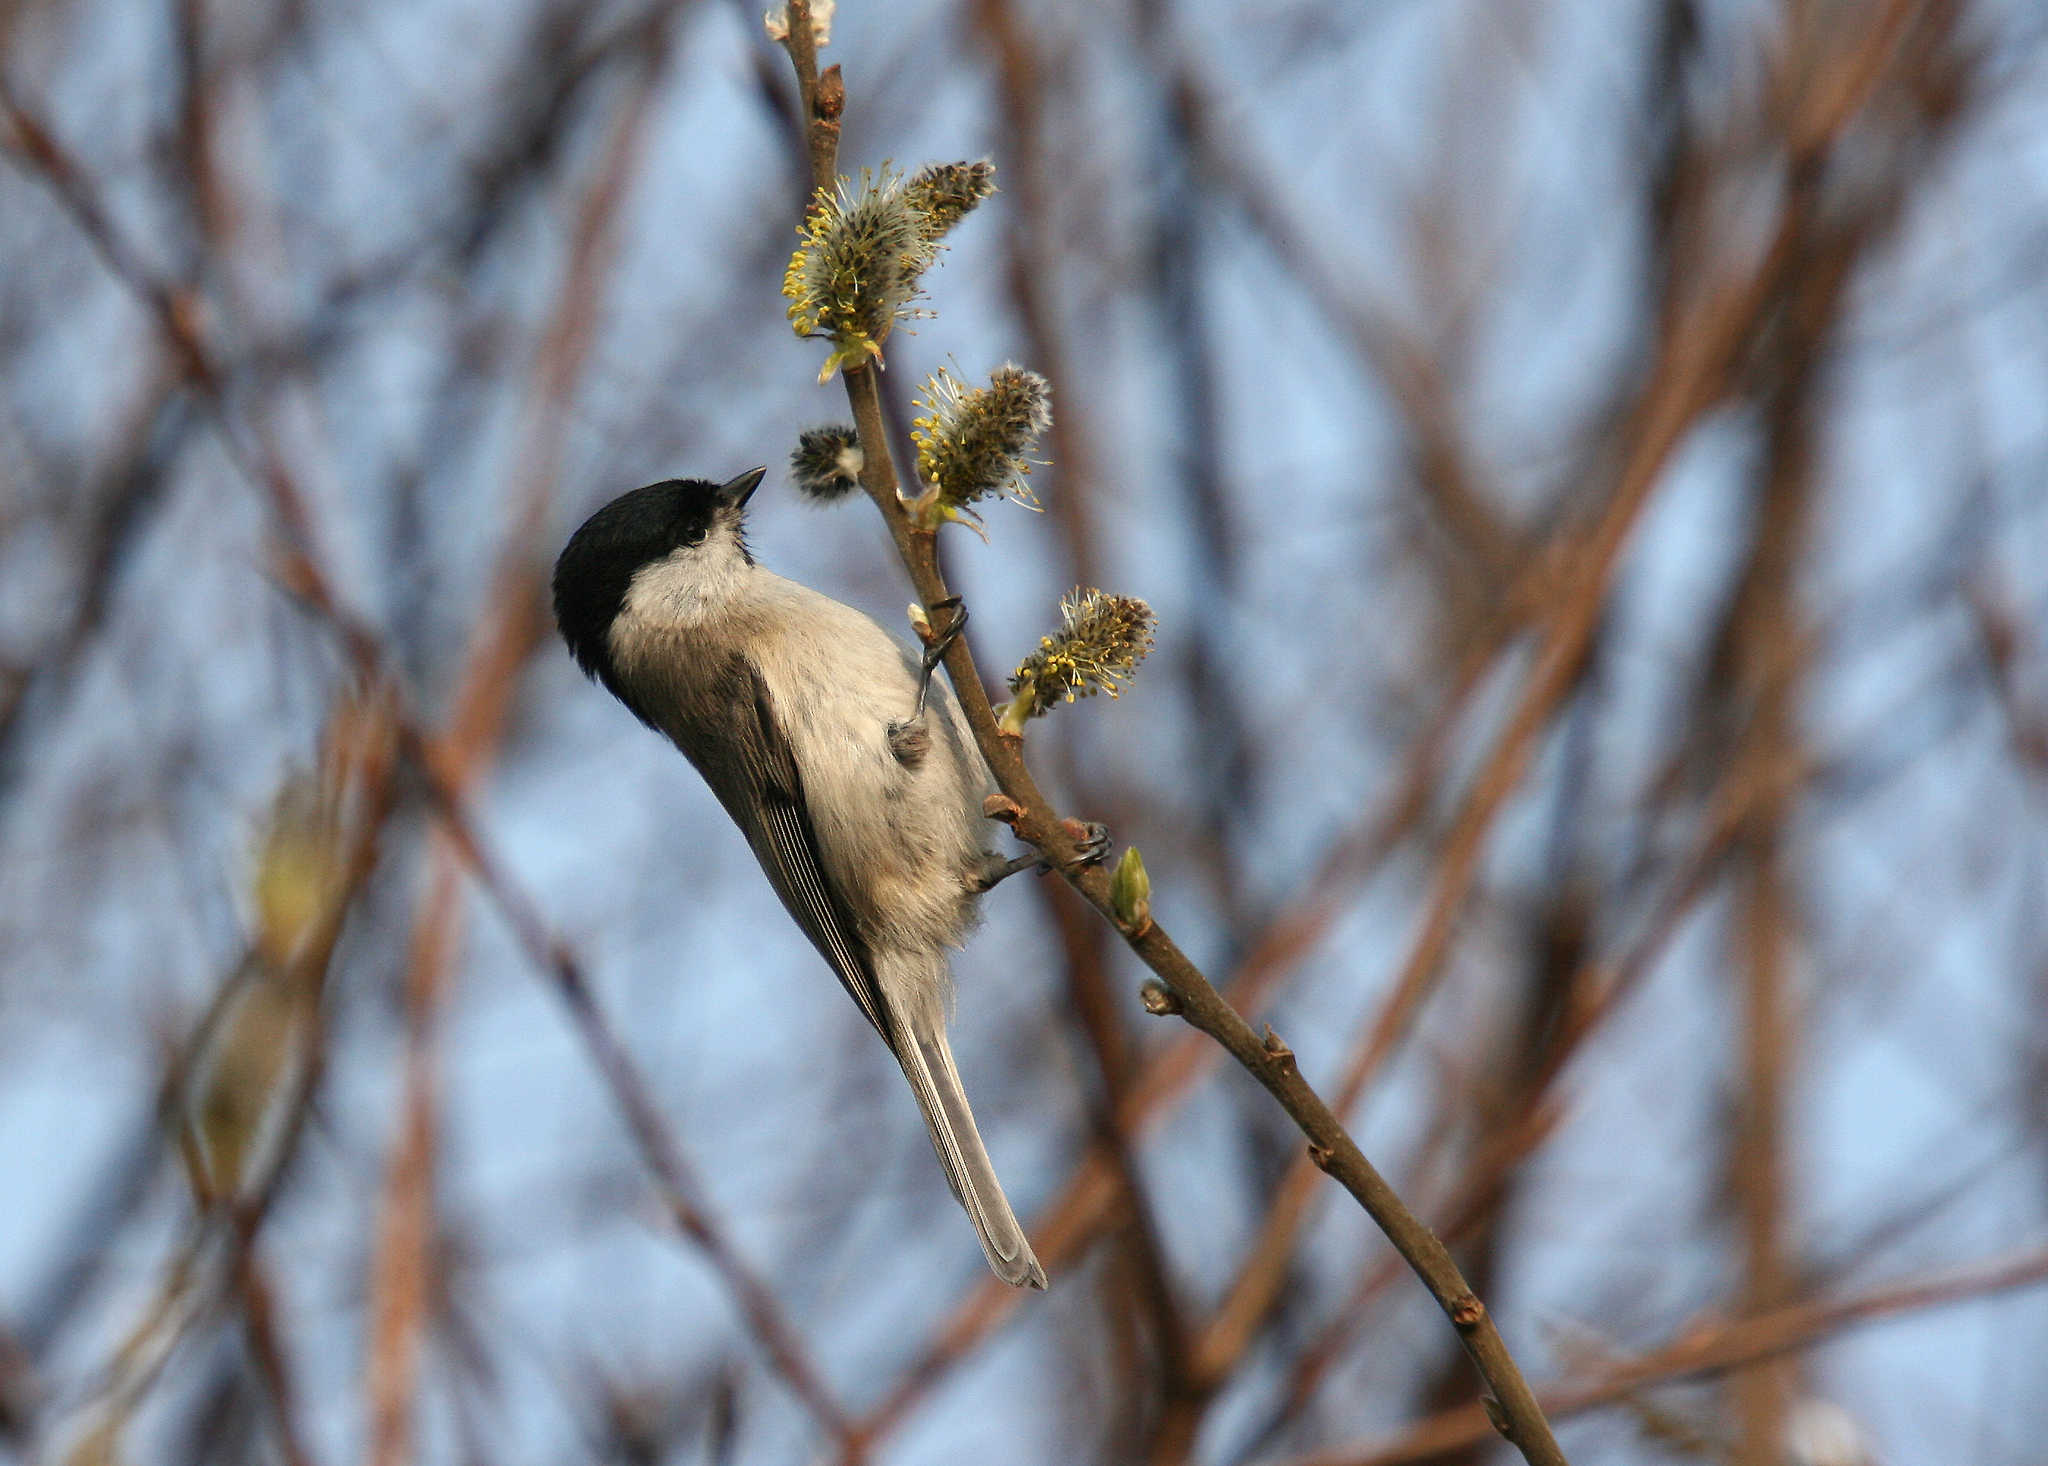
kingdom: Animalia
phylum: Chordata
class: Aves
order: Passeriformes
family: Paridae
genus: Poecile
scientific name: Poecile palustris
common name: Marsh tit
